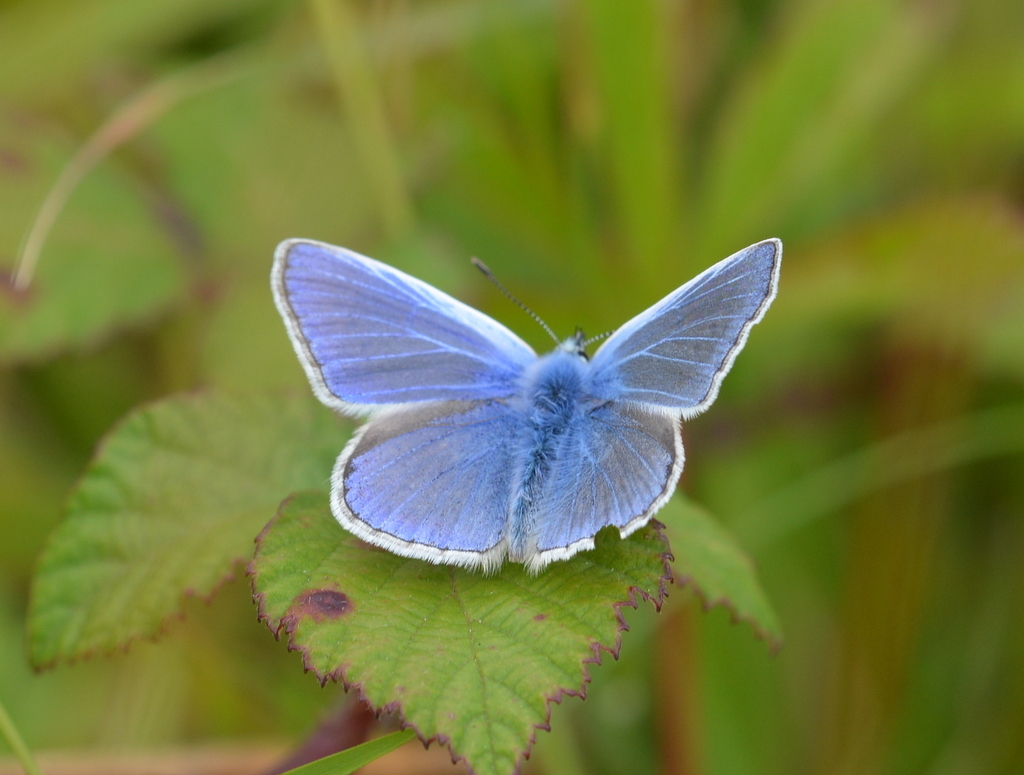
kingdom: Animalia
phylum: Arthropoda
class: Insecta
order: Lepidoptera
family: Lycaenidae
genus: Polyommatus
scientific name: Polyommatus icarus
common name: Common blue
